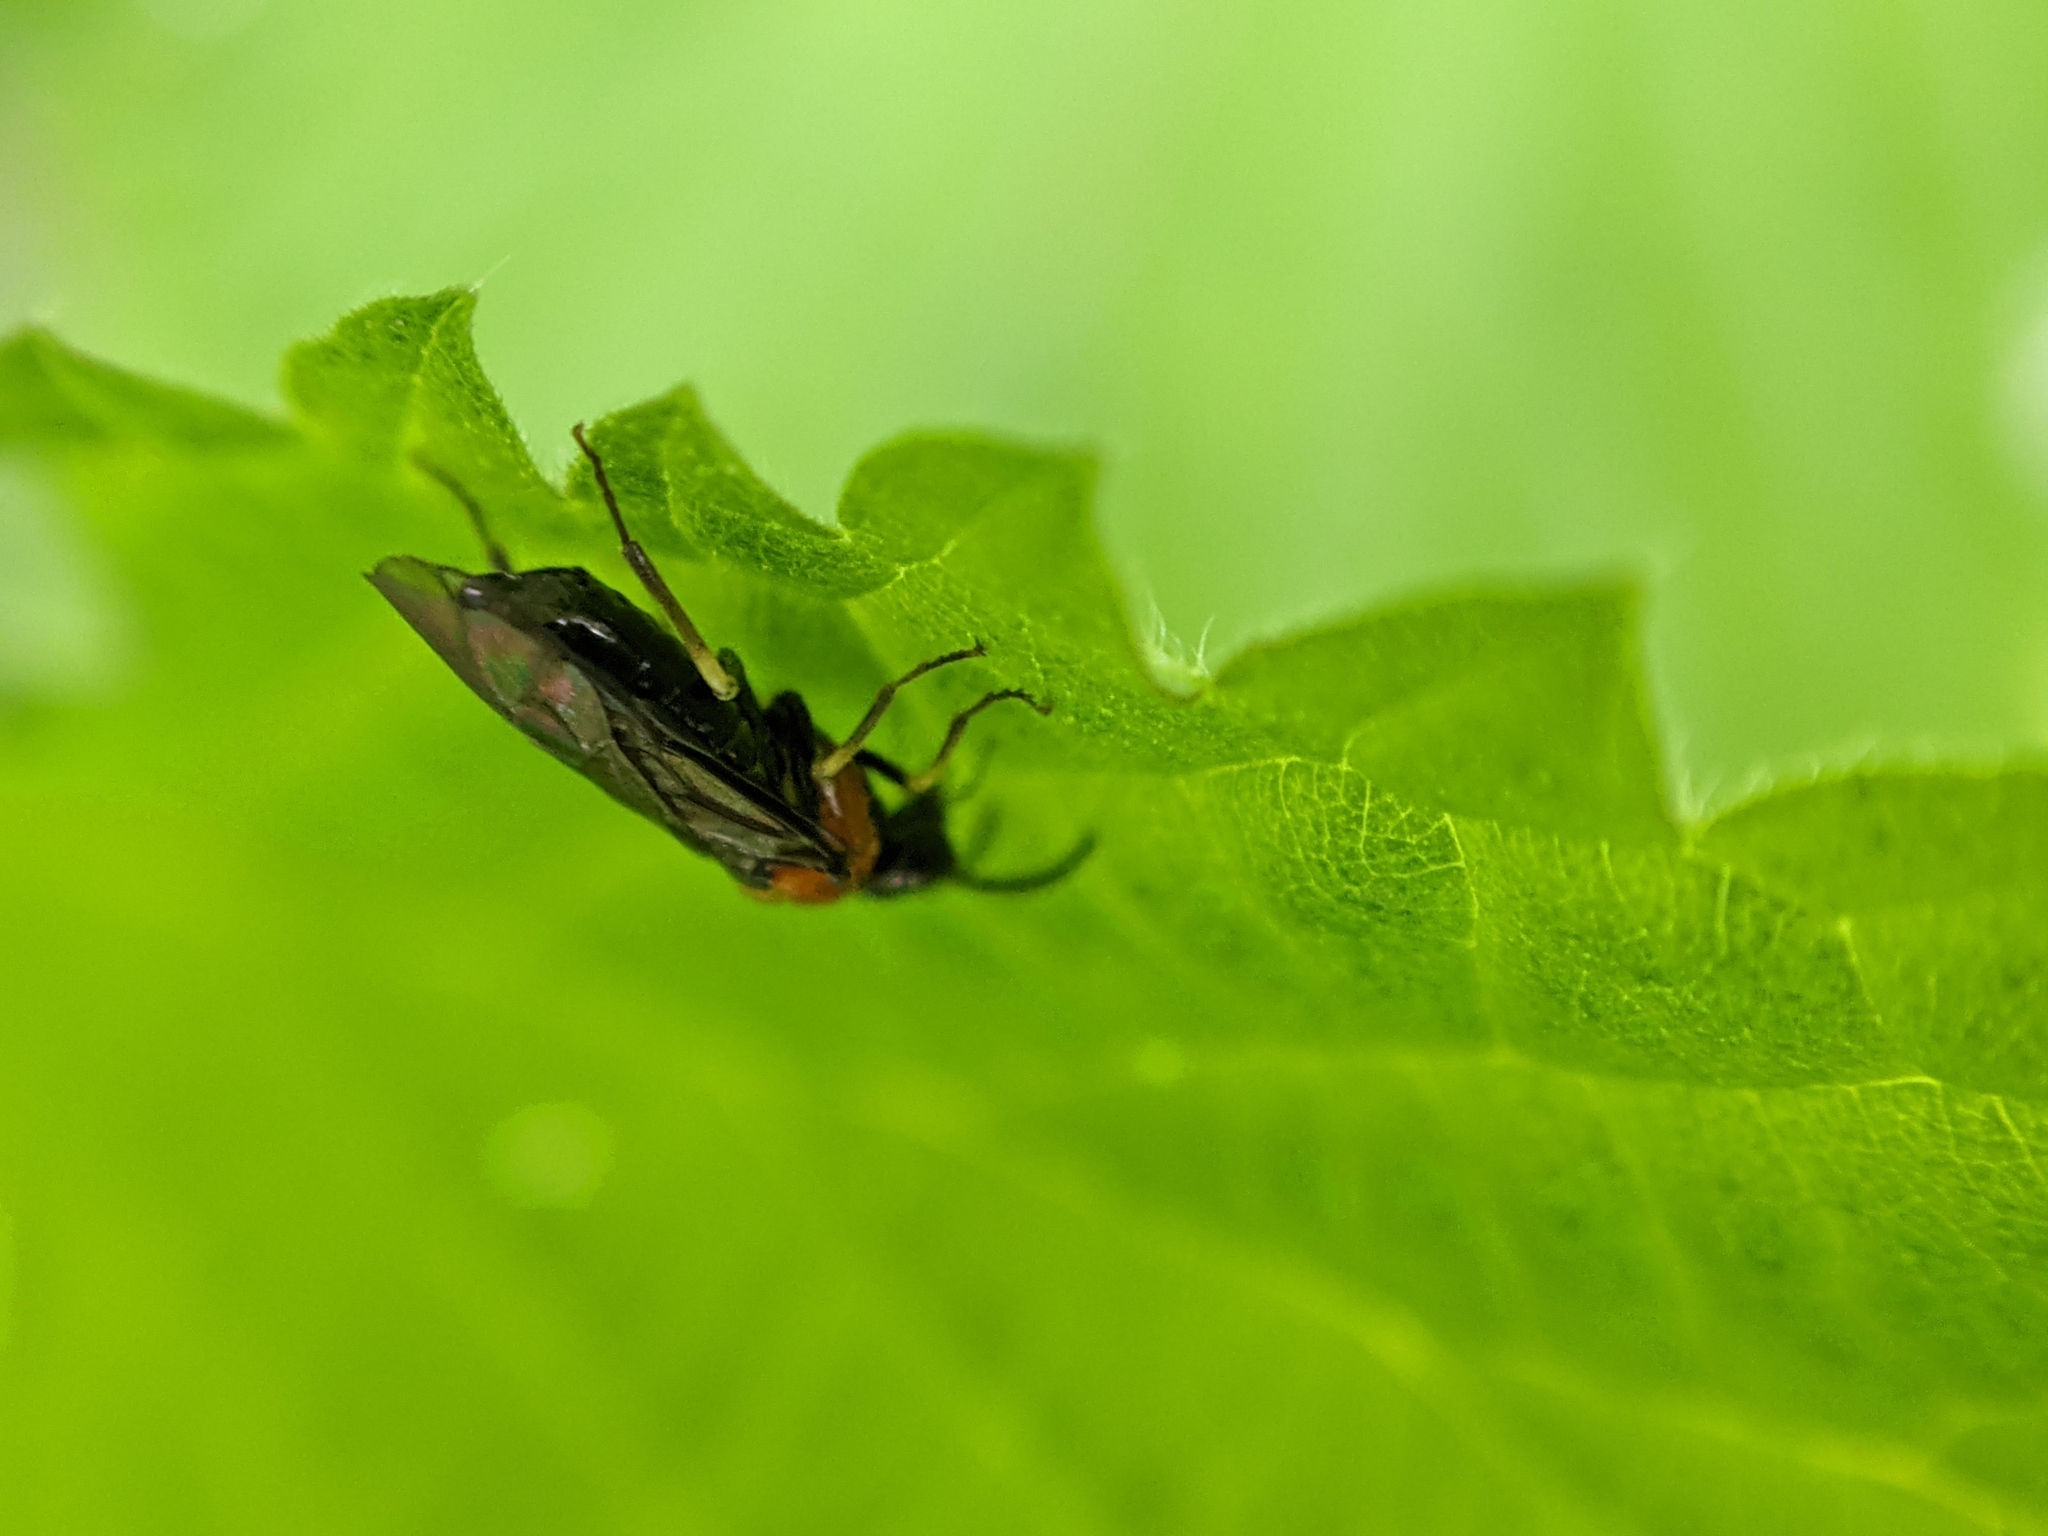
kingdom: Animalia
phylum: Arthropoda
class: Insecta
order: Hymenoptera
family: Tenthredinidae
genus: Eutomostethus
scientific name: Eutomostethus ephippium
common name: Tenthredid wasp
